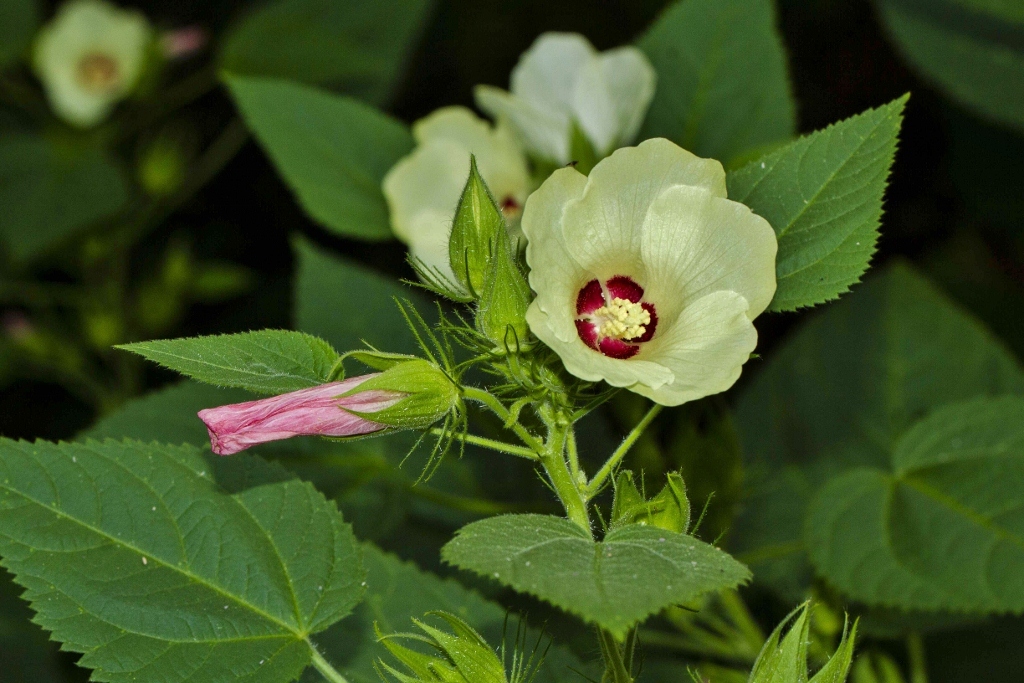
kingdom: Plantae
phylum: Tracheophyta
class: Magnoliopsida
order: Malvales
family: Malvaceae
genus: Hibiscus
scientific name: Hibiscus rhabdotospermus
